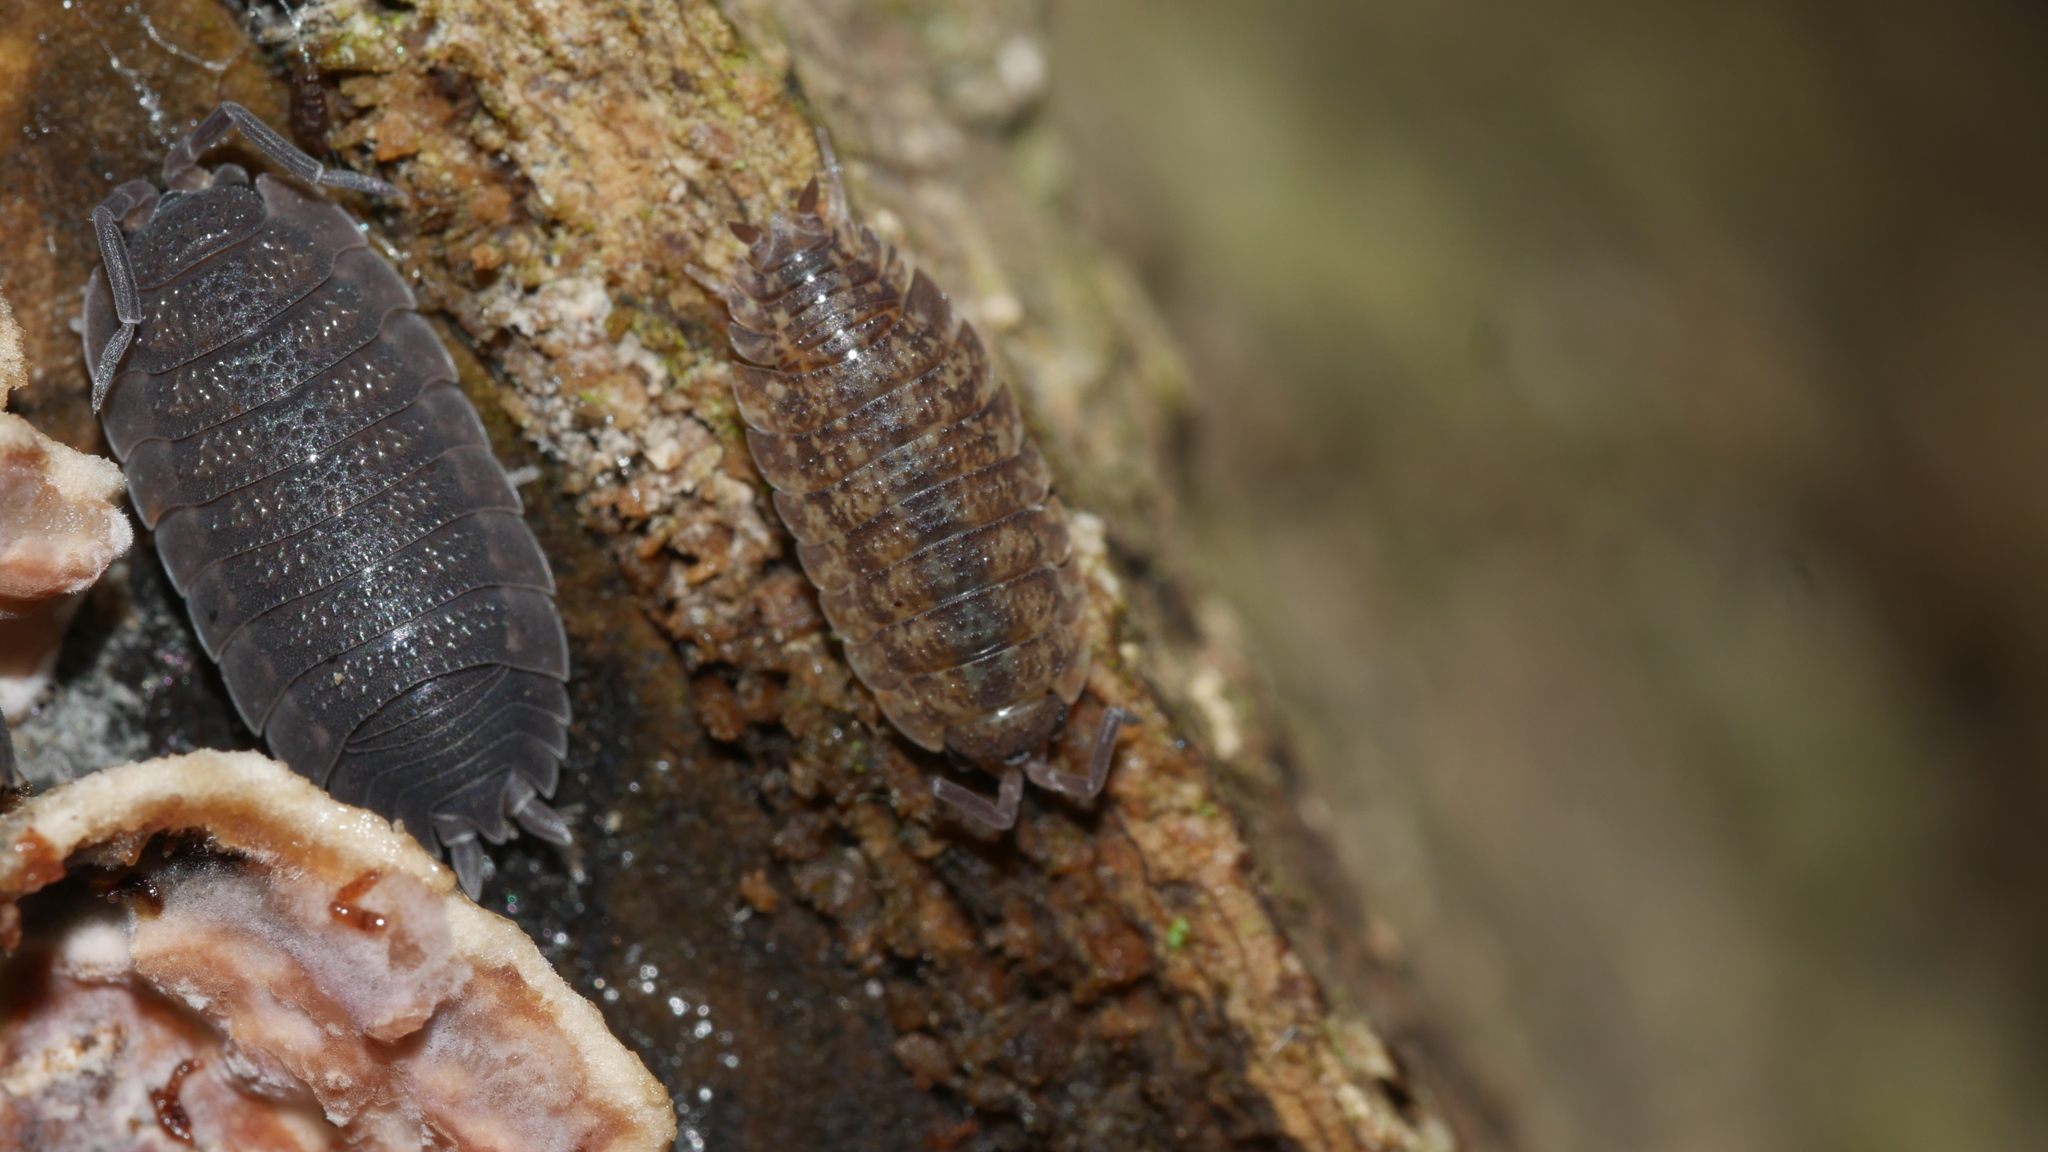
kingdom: Animalia
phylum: Arthropoda
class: Malacostraca
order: Isopoda
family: Porcellionidae
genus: Porcellio
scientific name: Porcellio scaber
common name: Common rough woodlouse
